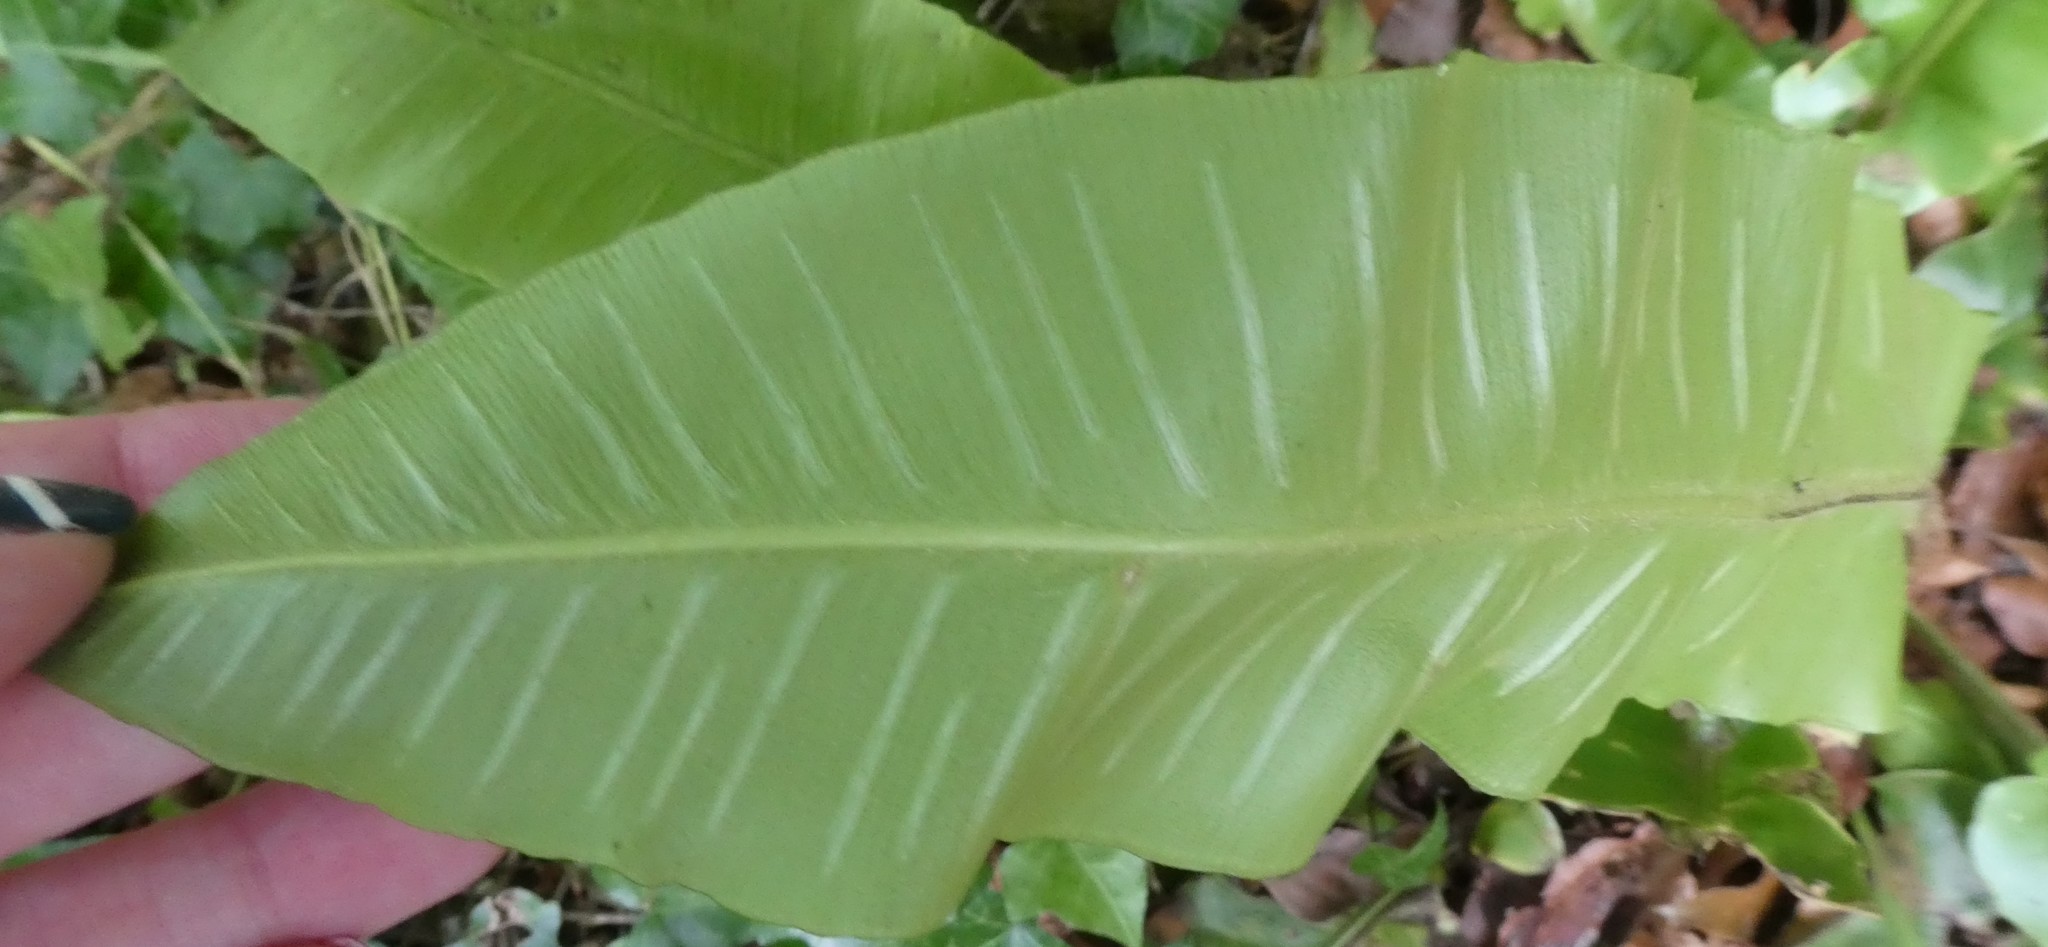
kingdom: Plantae
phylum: Tracheophyta
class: Polypodiopsida
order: Polypodiales
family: Aspleniaceae
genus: Asplenium
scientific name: Asplenium scolopendrium
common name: Hart's-tongue fern
